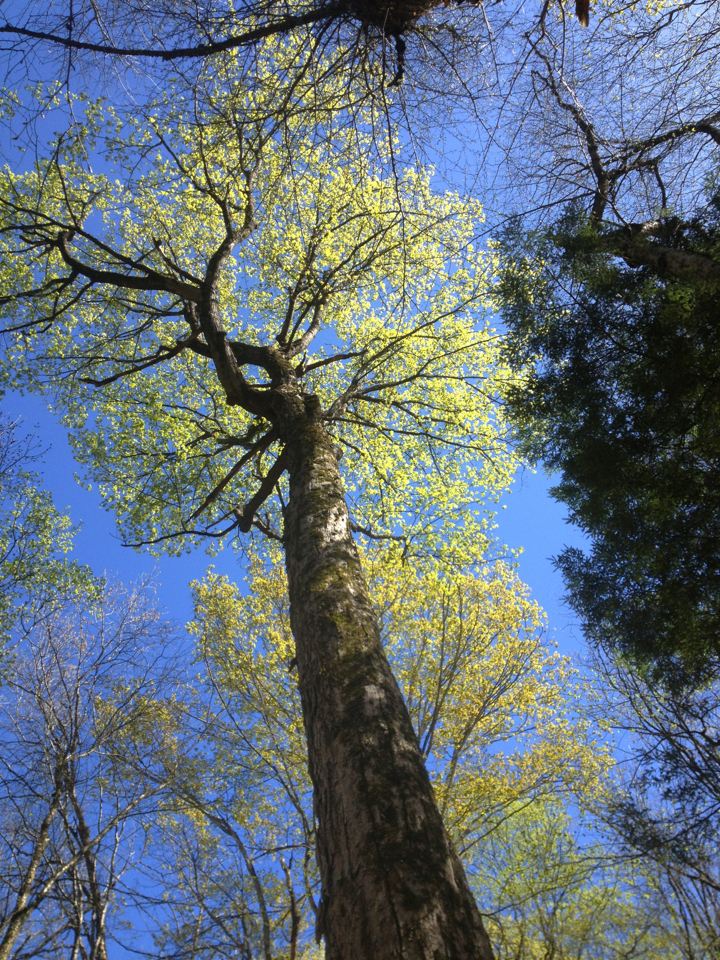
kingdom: Plantae
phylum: Tracheophyta
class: Magnoliopsida
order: Sapindales
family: Sapindaceae
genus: Acer
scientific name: Acer saccharum
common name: Sugar maple
